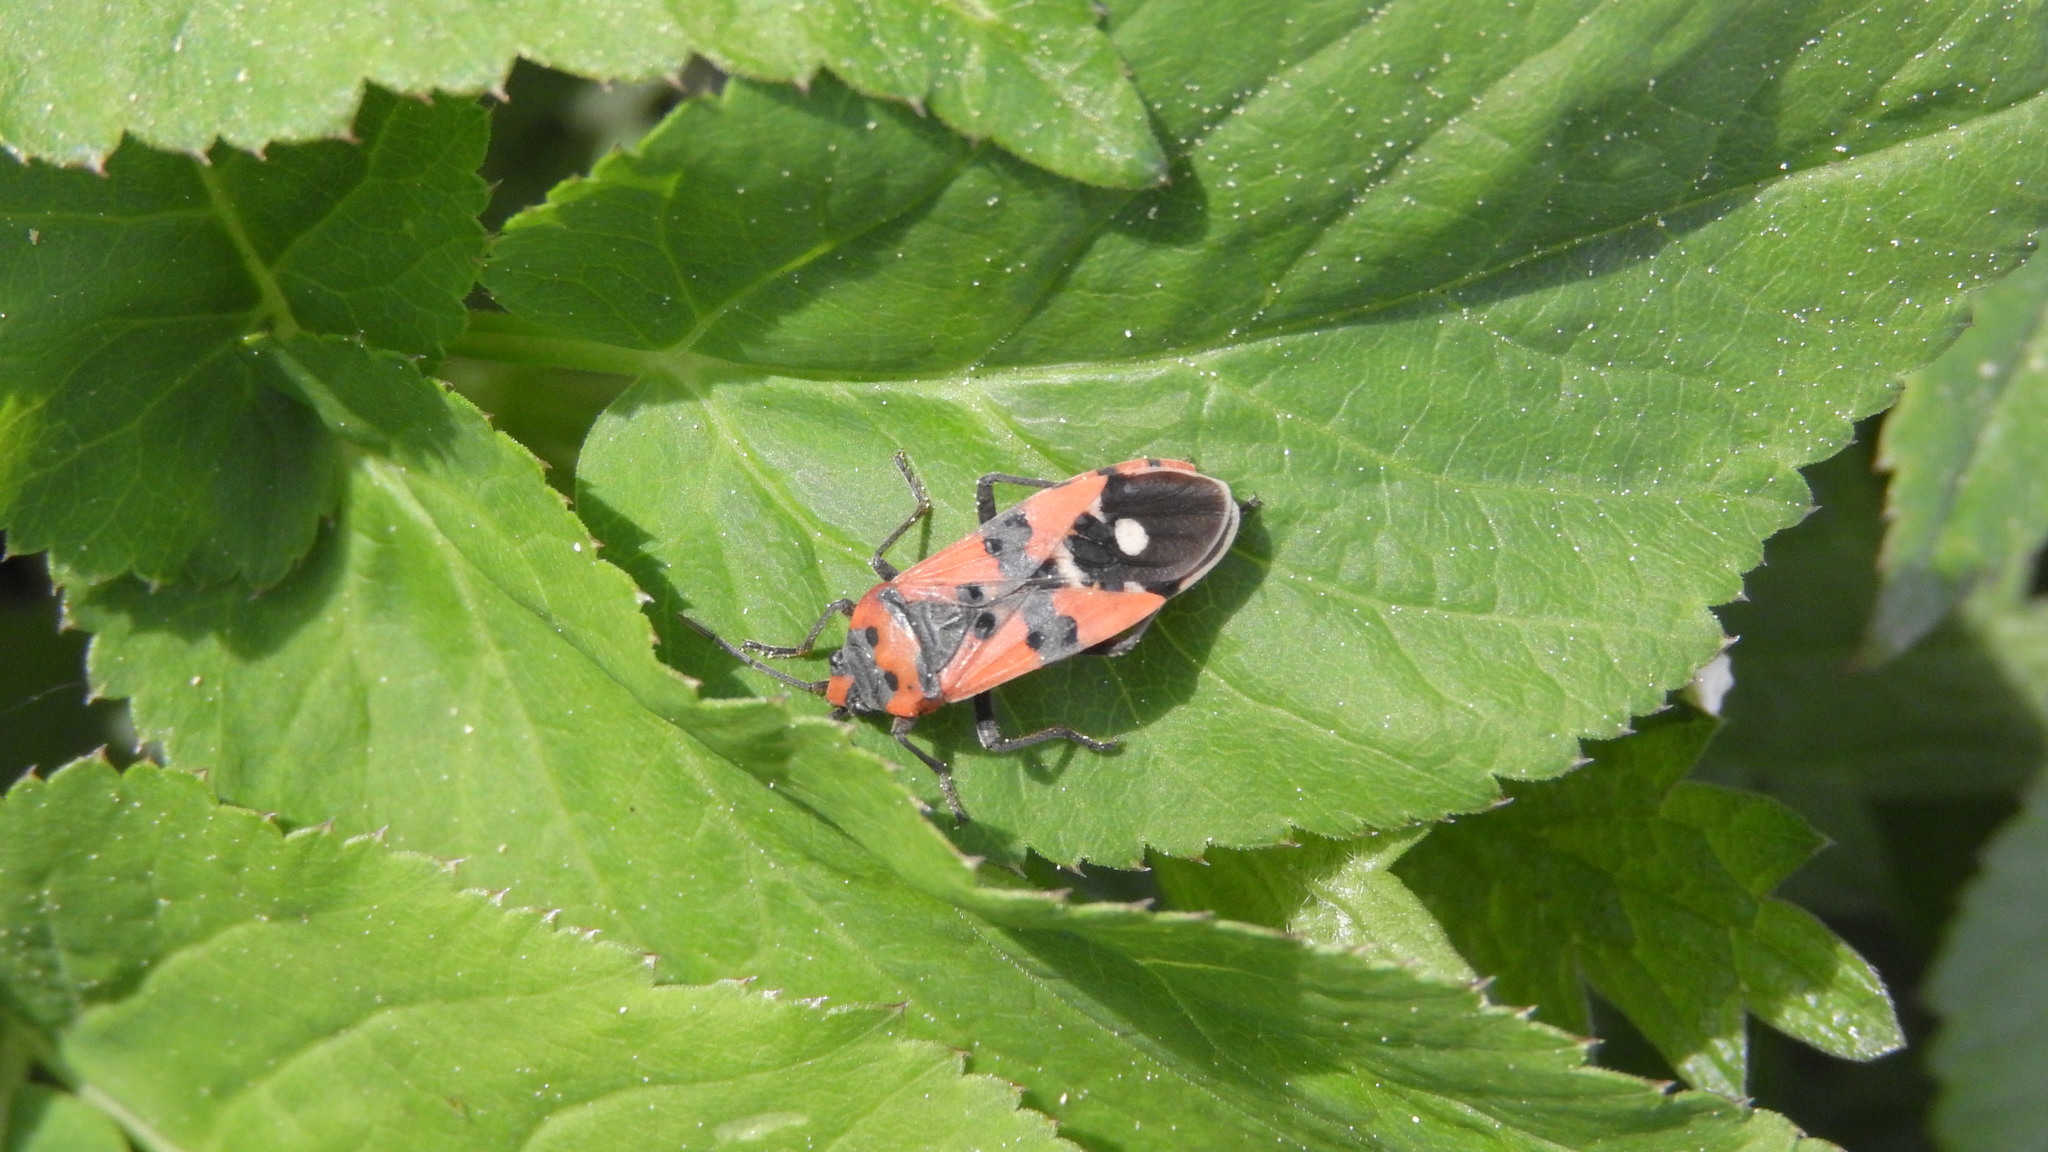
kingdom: Animalia
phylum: Arthropoda
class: Insecta
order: Hemiptera
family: Lygaeidae
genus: Lygaeus
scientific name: Lygaeus equestris
